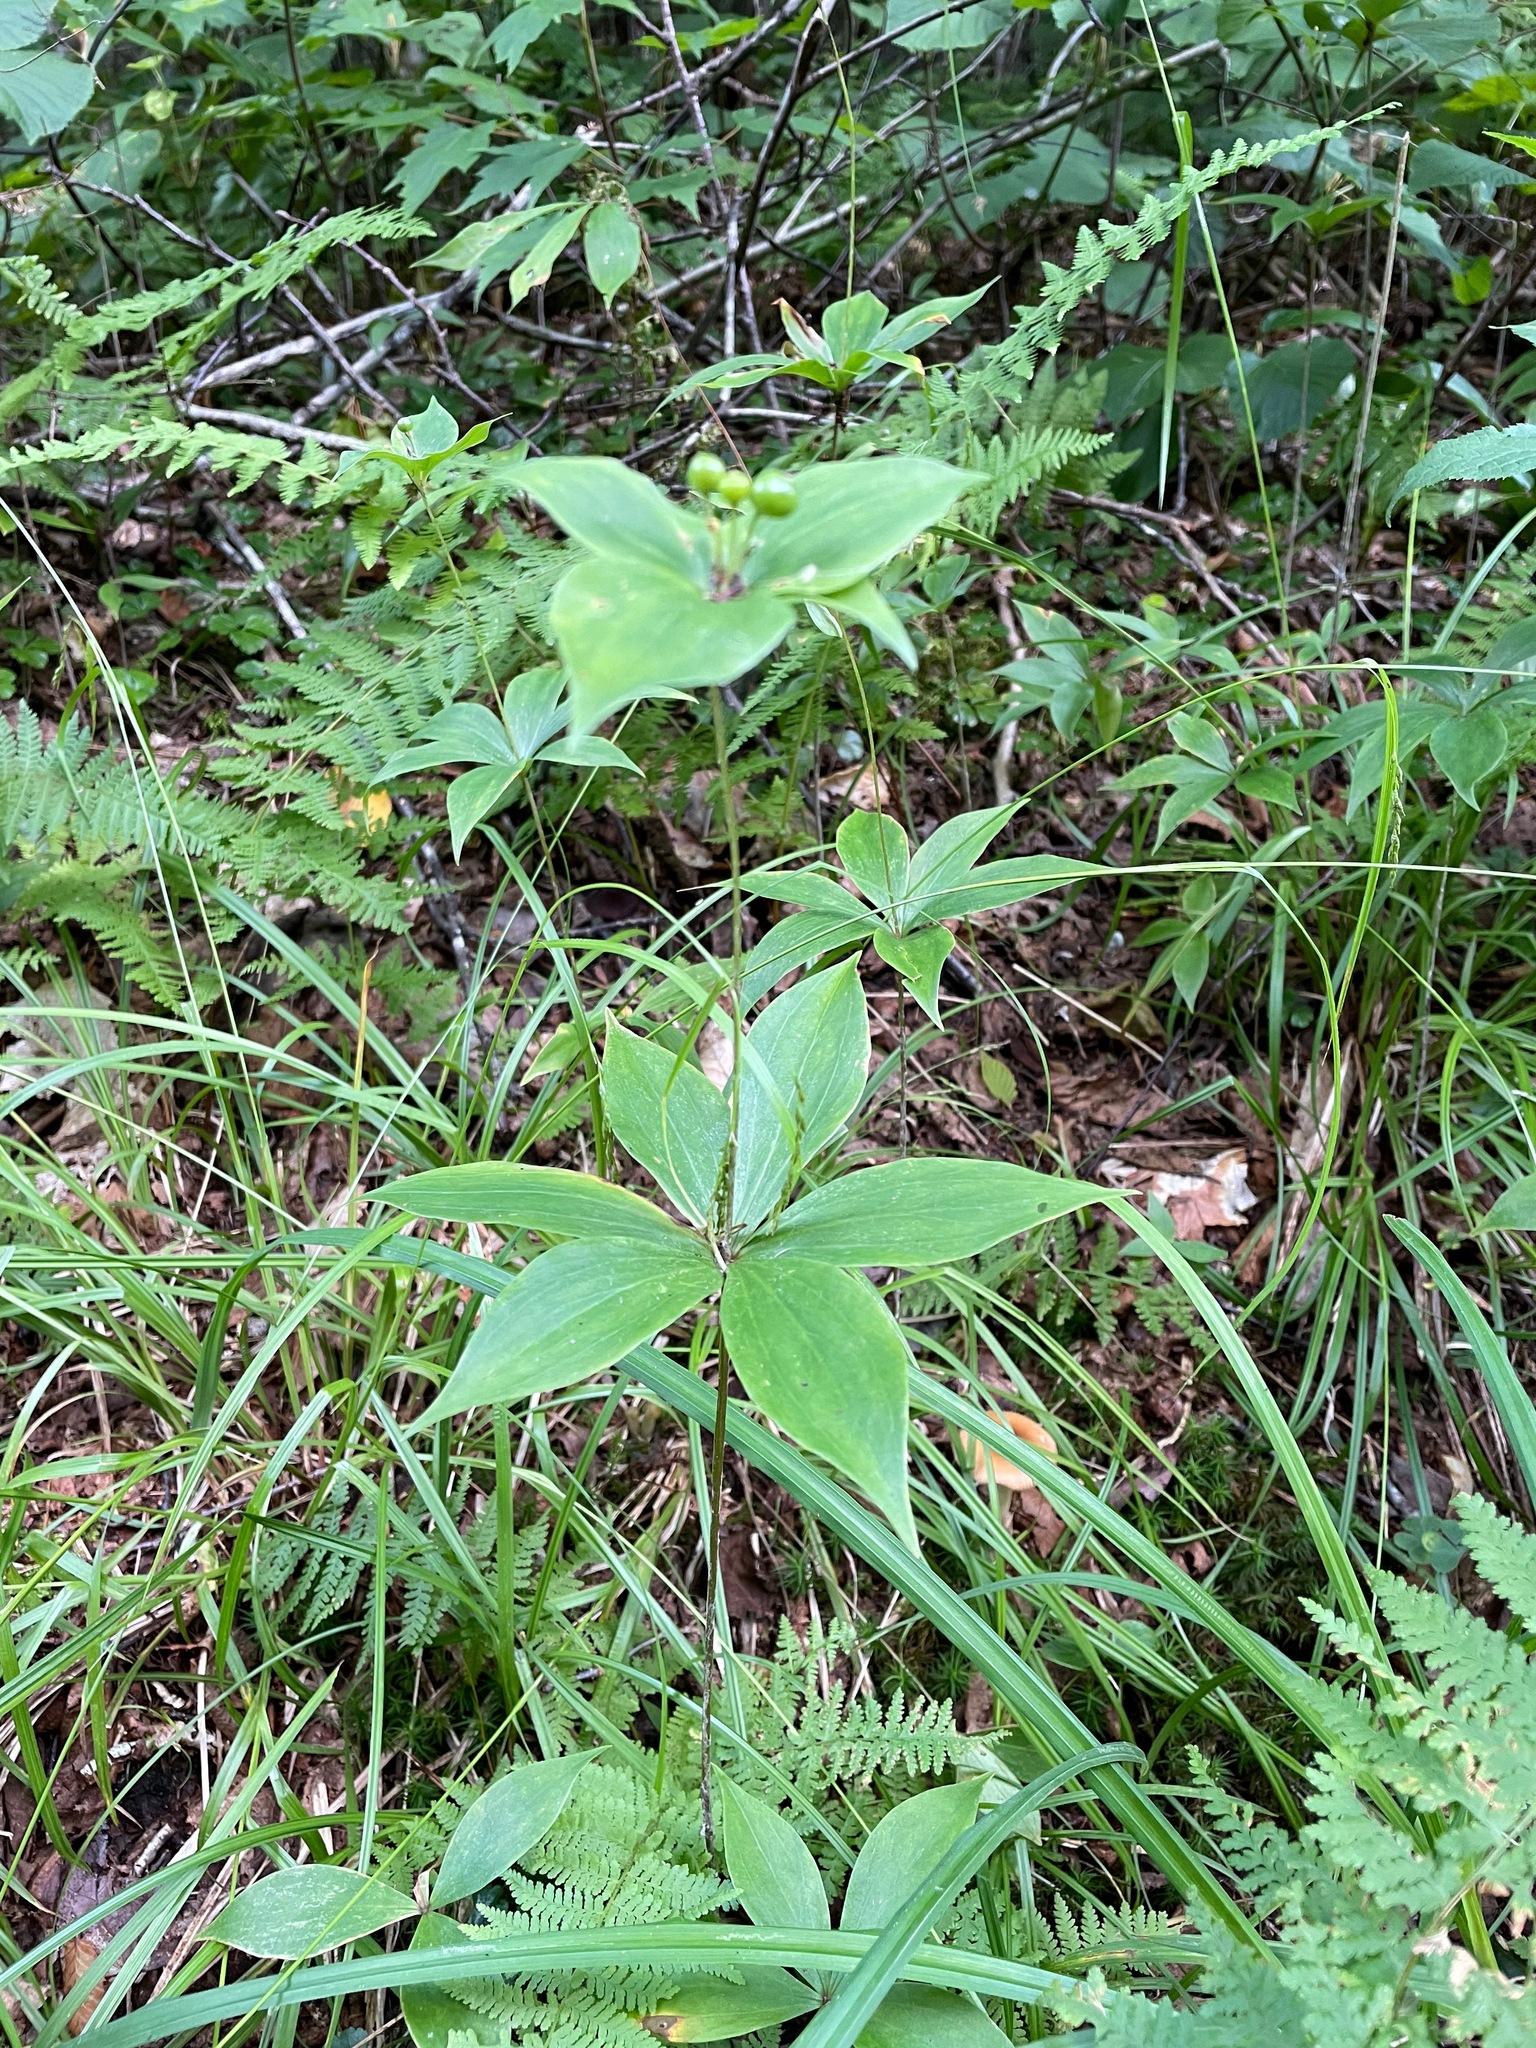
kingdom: Plantae
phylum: Tracheophyta
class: Liliopsida
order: Liliales
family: Liliaceae
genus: Medeola
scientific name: Medeola virginiana
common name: Indian cucumber-root
